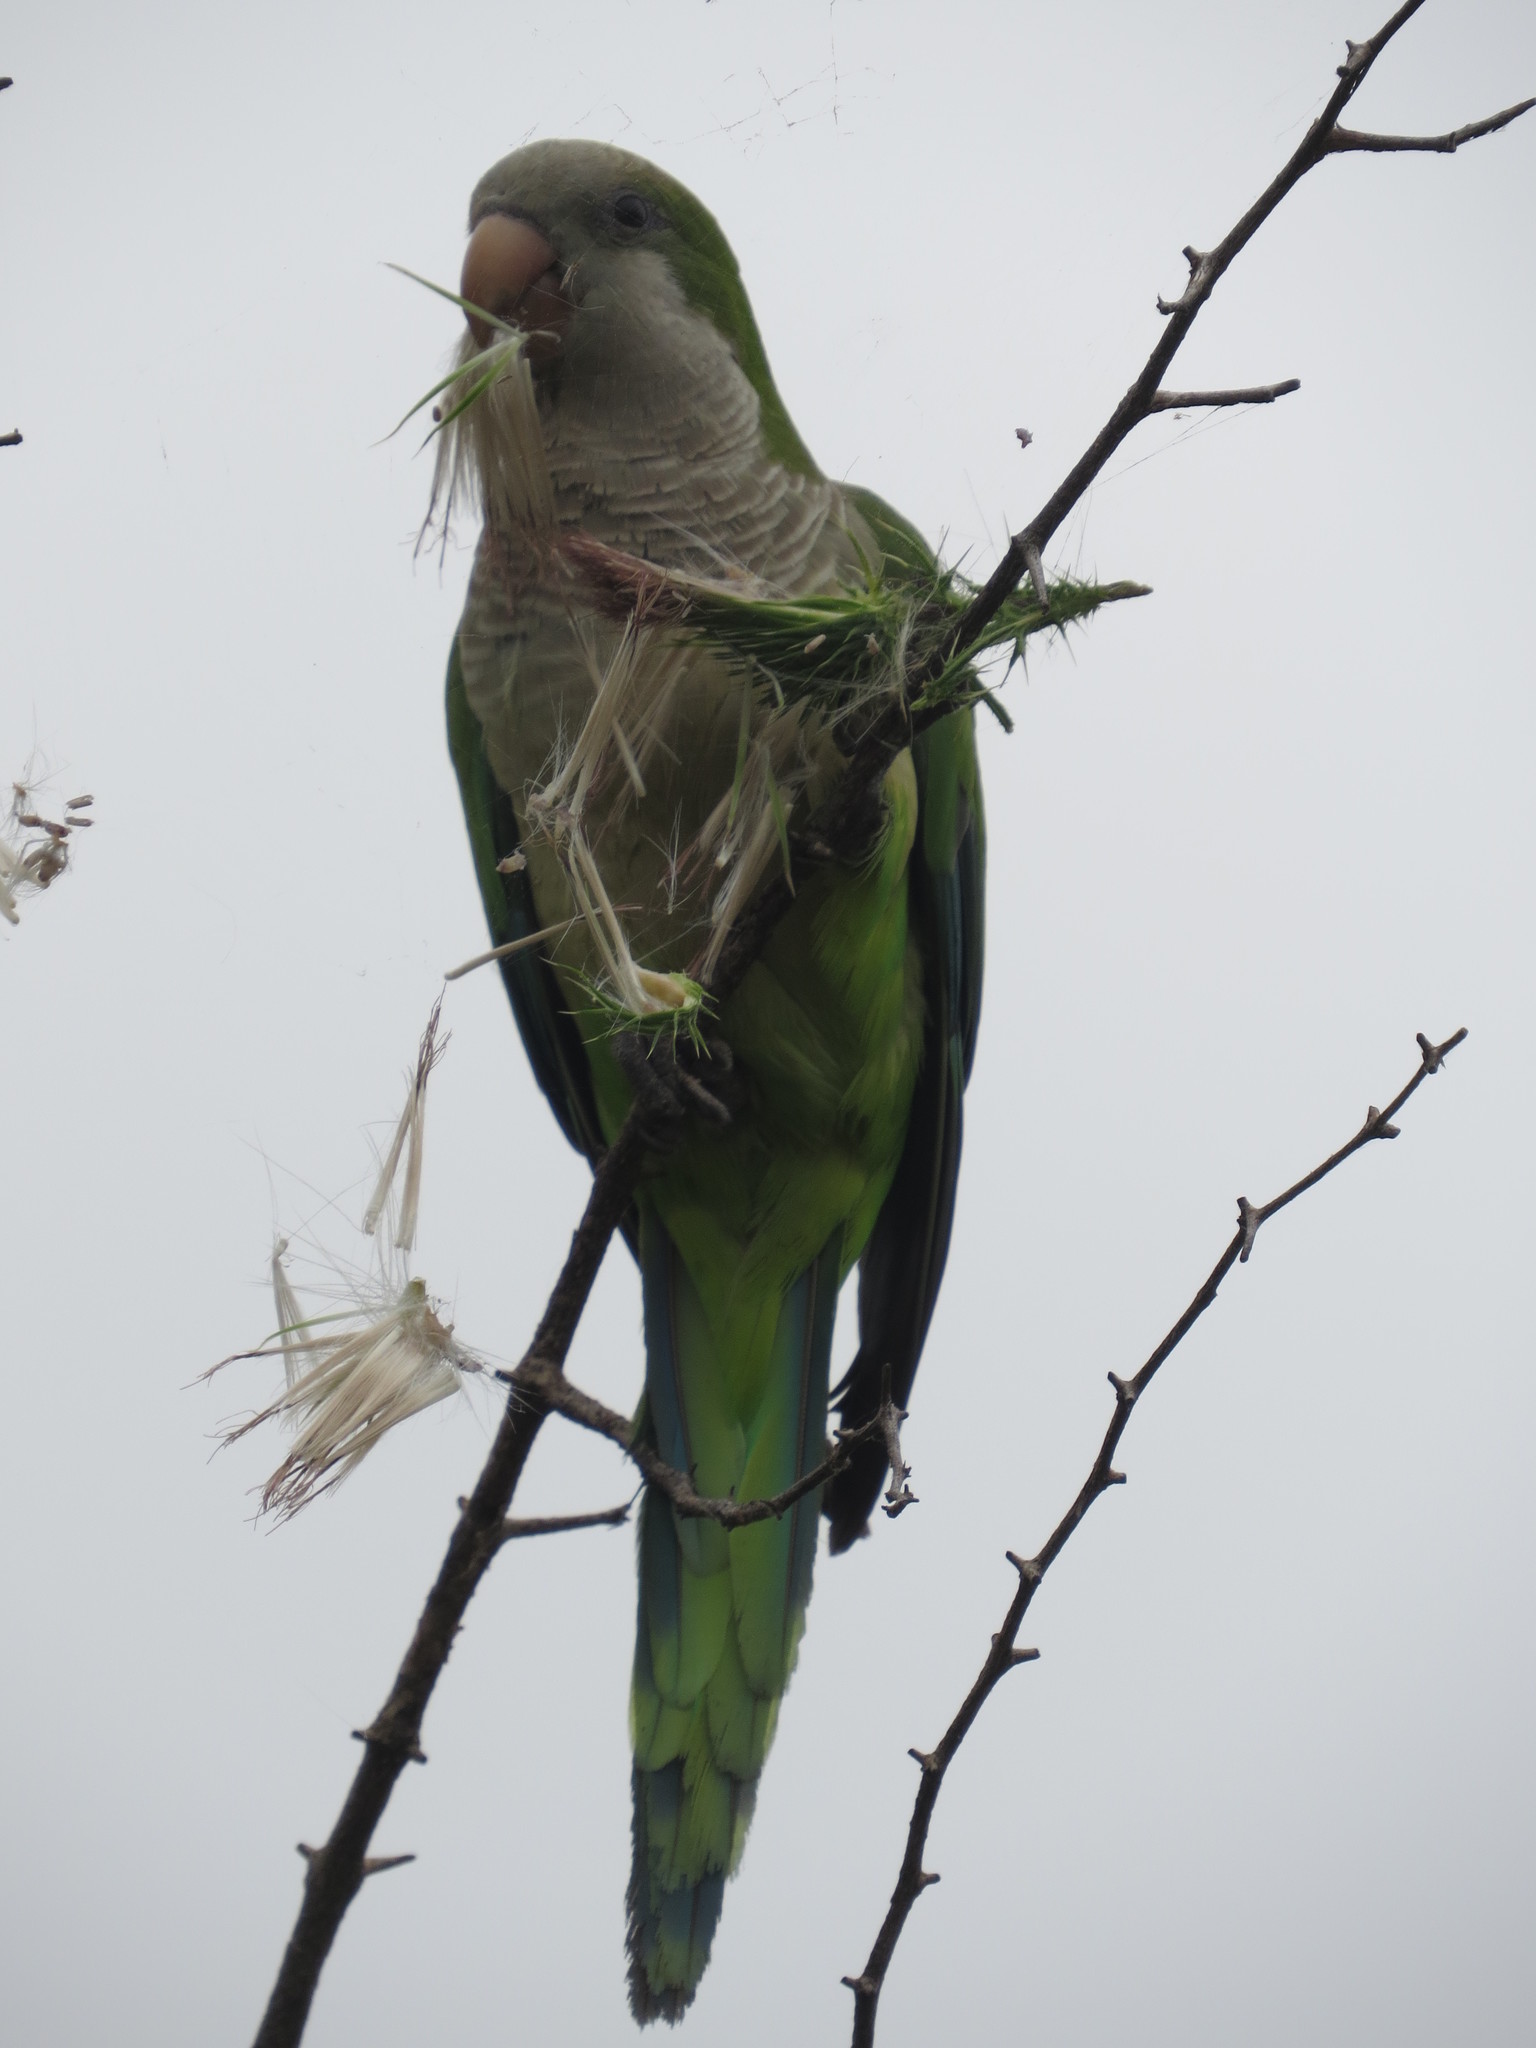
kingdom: Animalia
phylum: Chordata
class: Aves
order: Psittaciformes
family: Psittacidae
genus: Myiopsitta
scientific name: Myiopsitta monachus
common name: Monk parakeet
